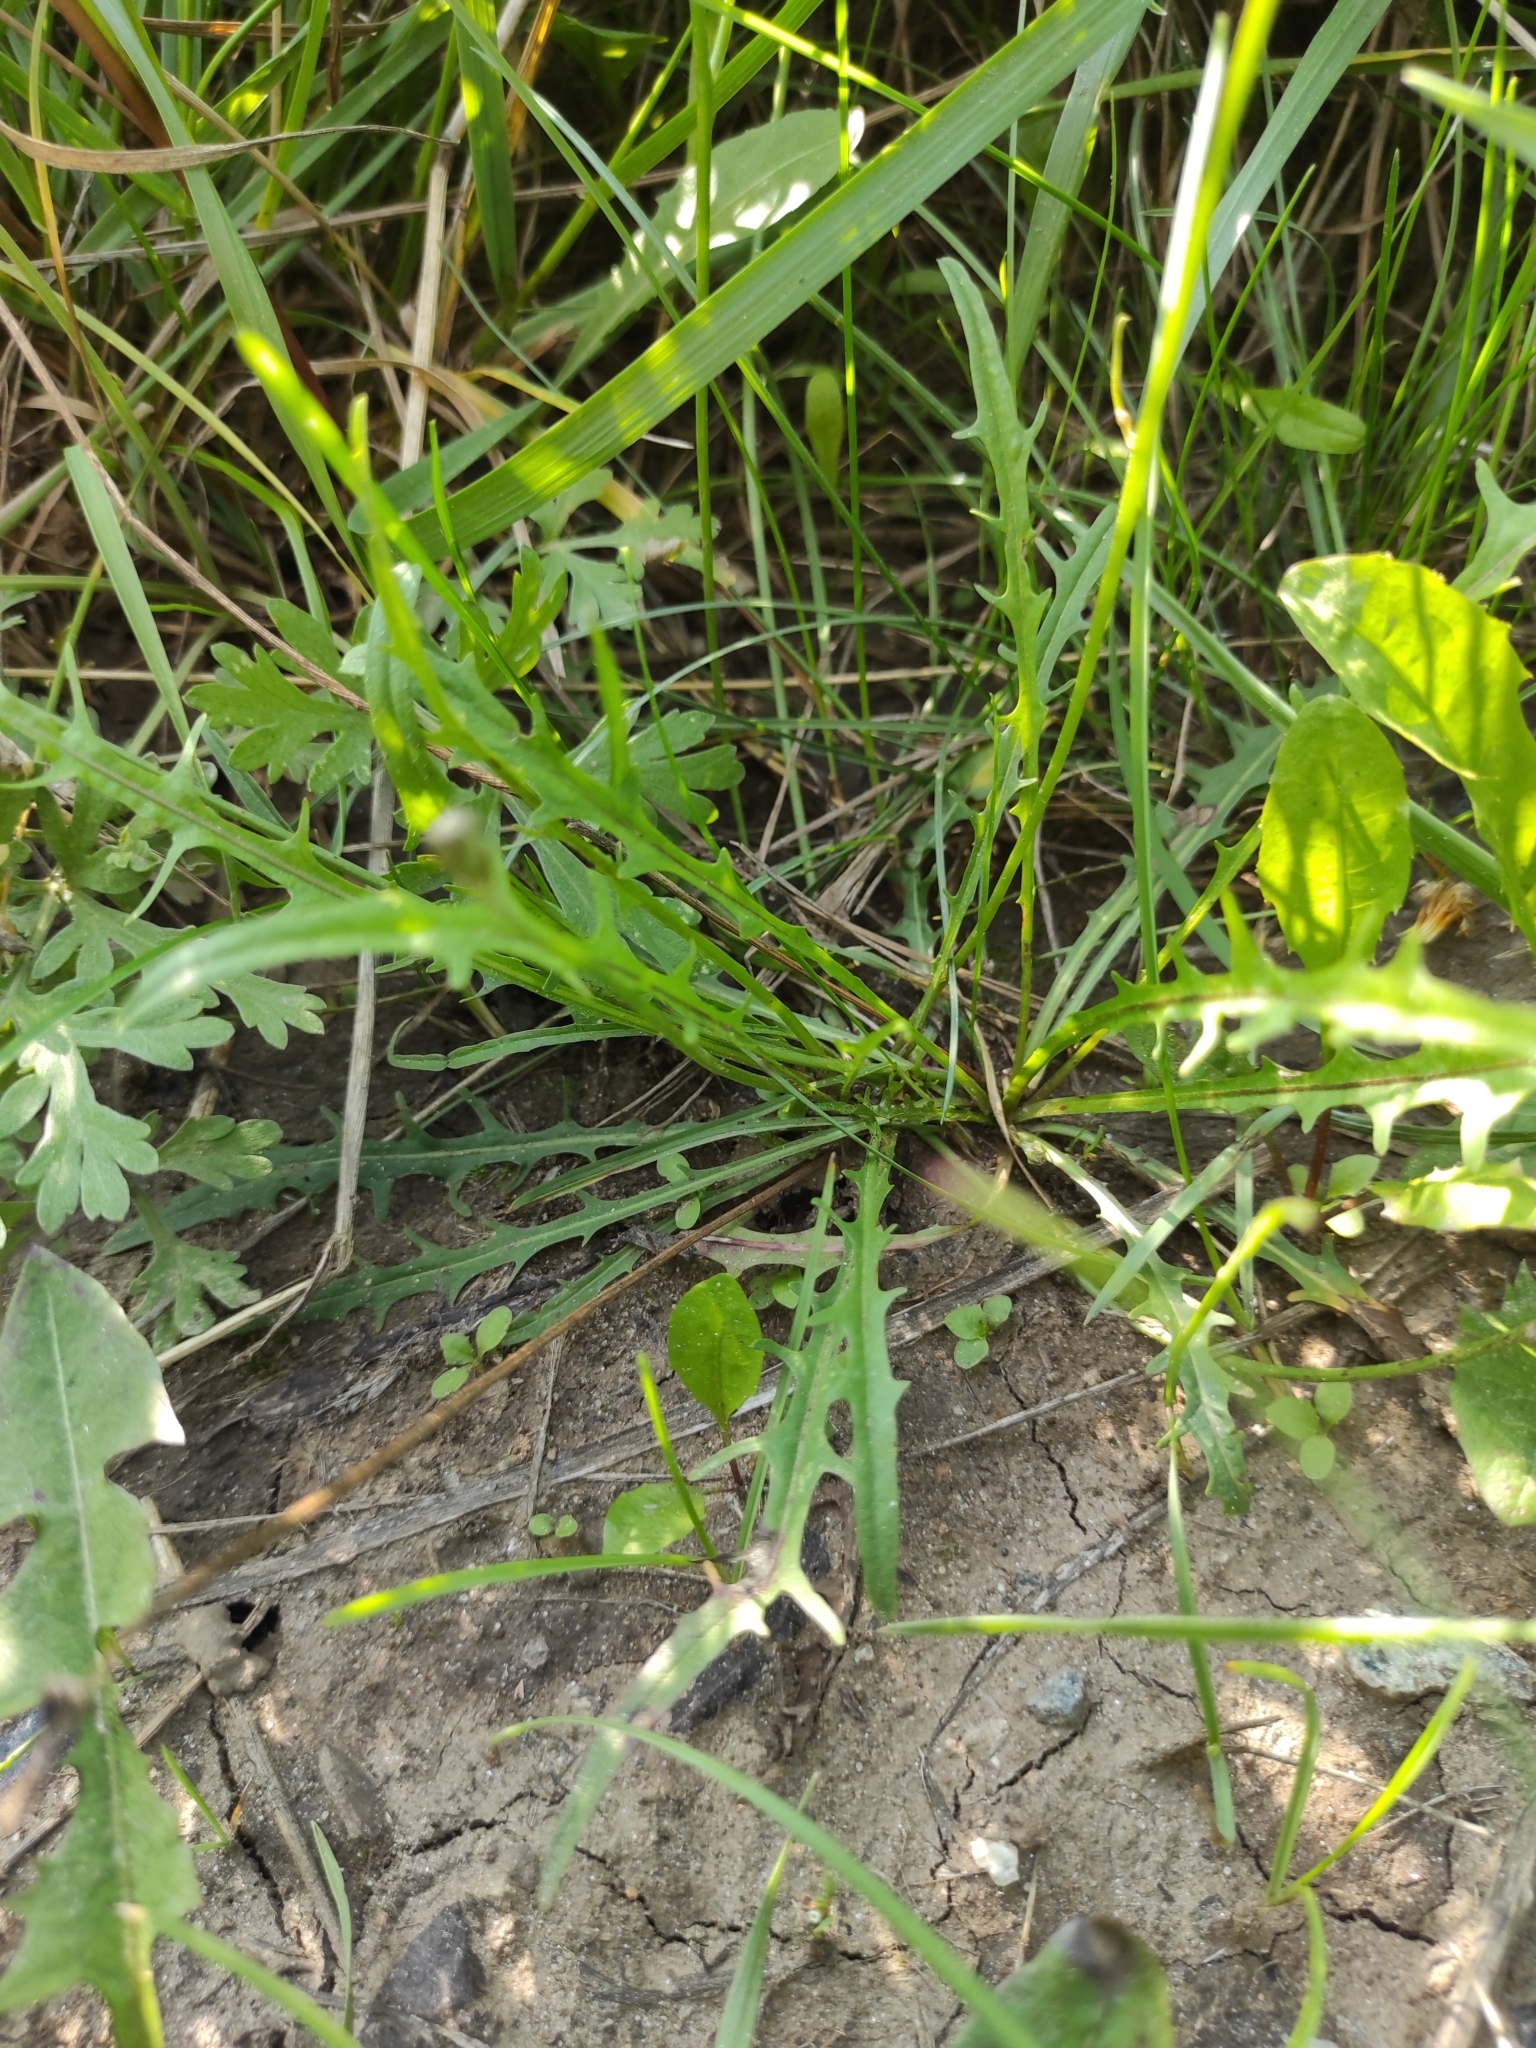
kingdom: Plantae
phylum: Tracheophyta
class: Magnoliopsida
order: Asterales
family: Asteraceae
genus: Scorzoneroides
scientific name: Scorzoneroides autumnalis
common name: Autumn hawkbit
